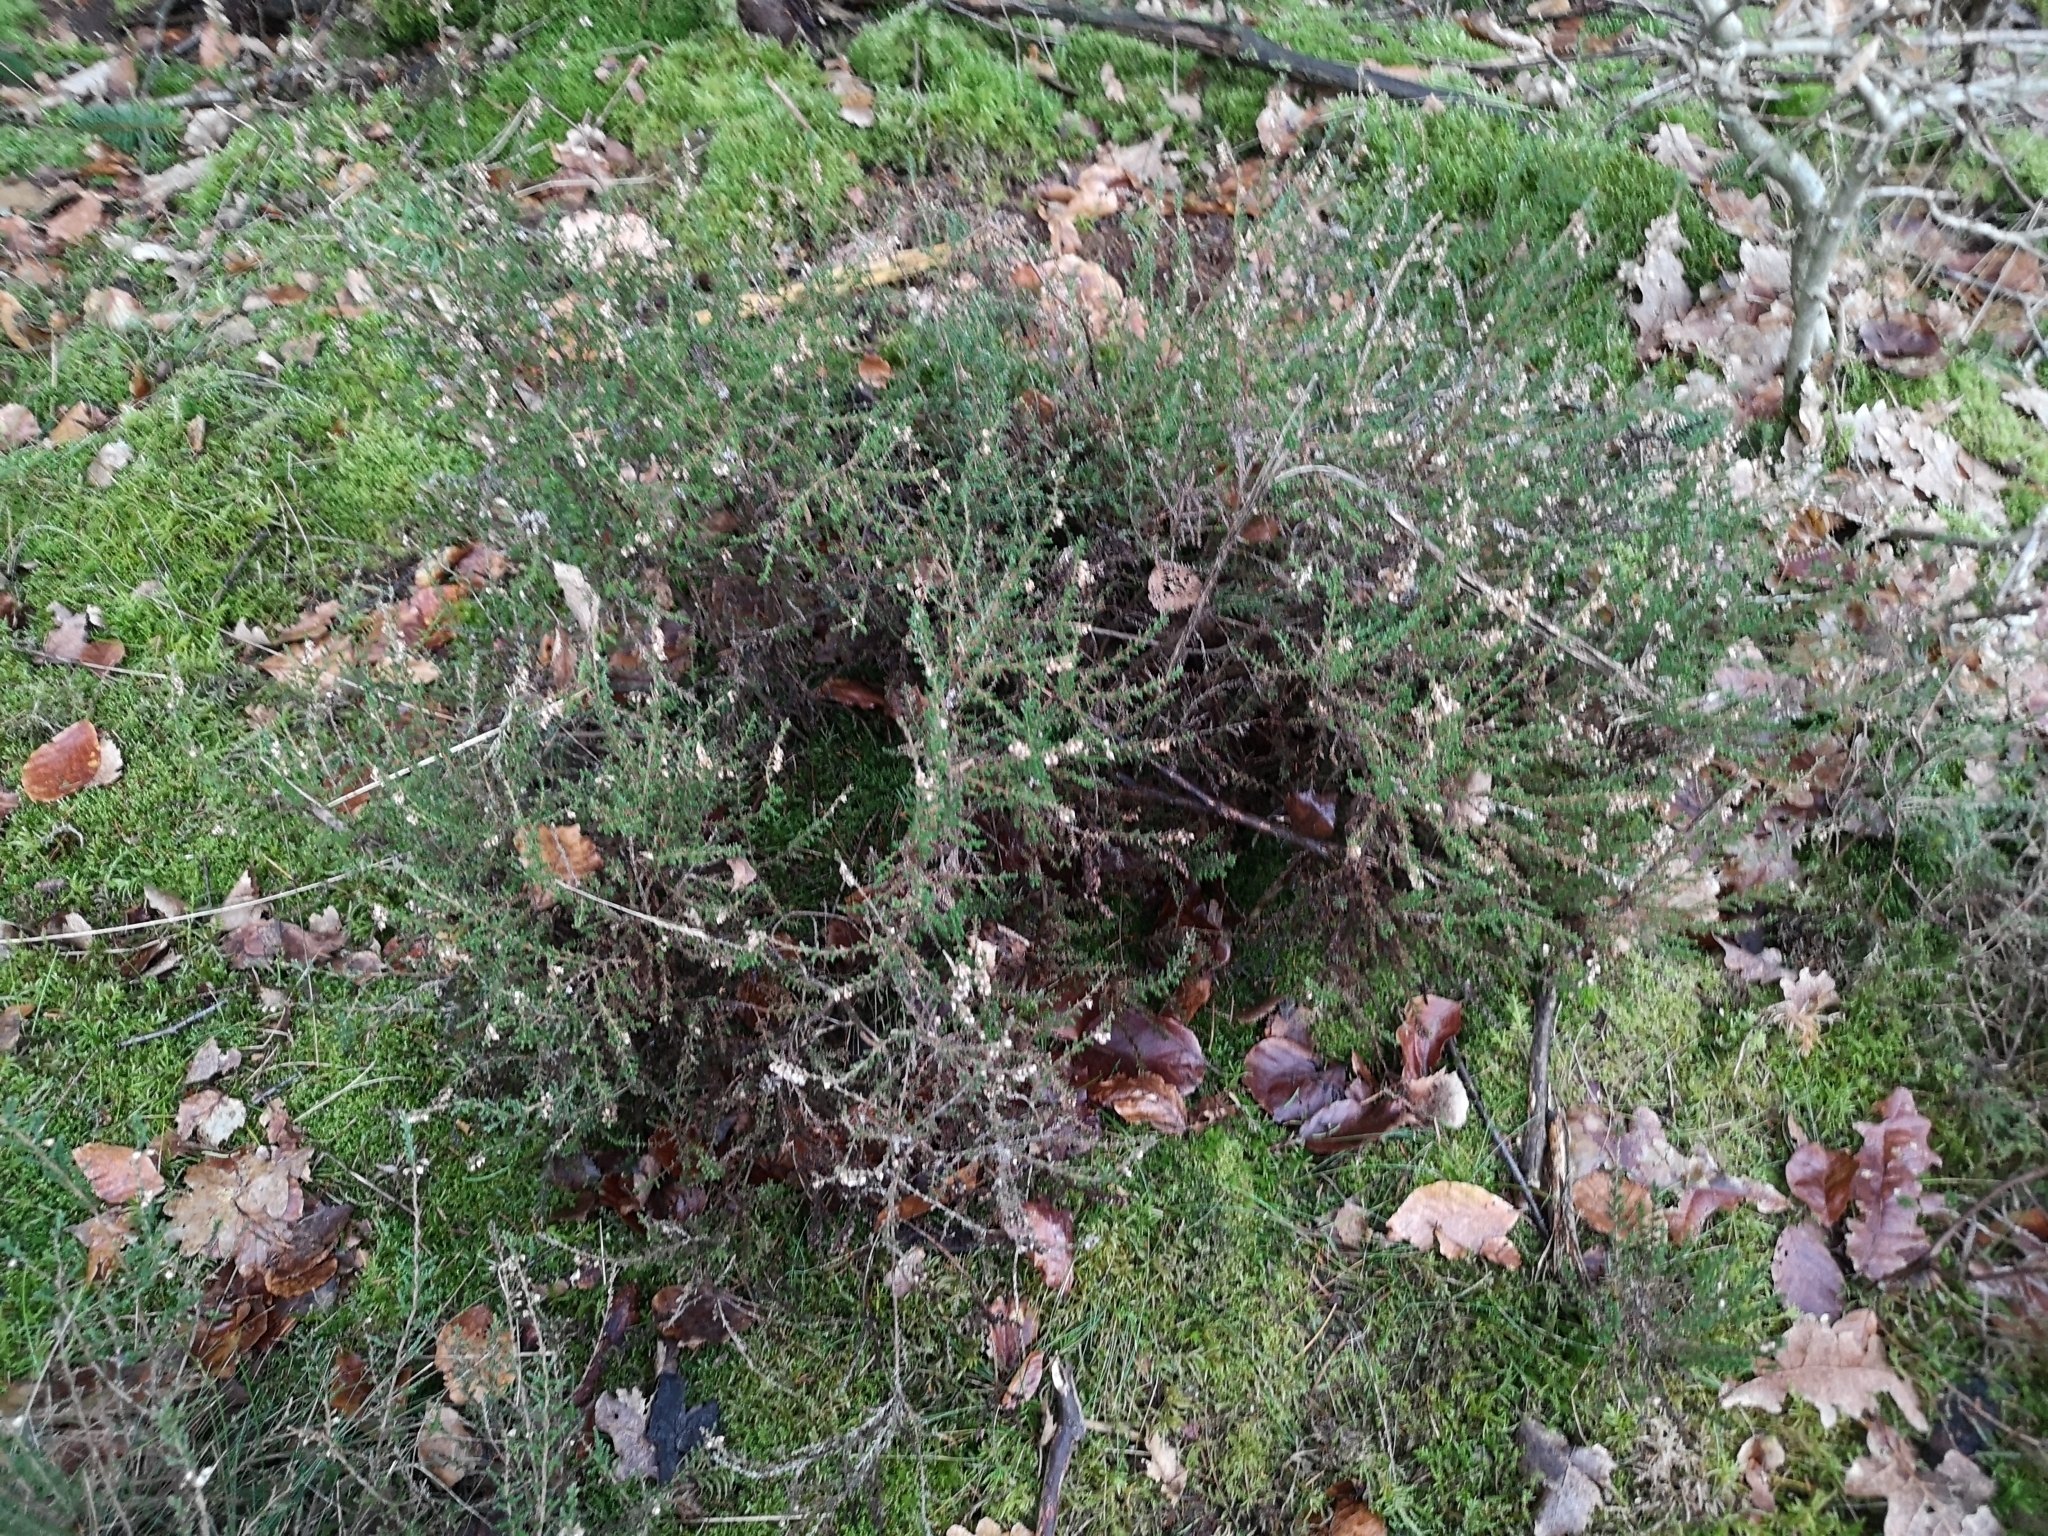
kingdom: Plantae
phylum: Tracheophyta
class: Magnoliopsida
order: Ericales
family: Ericaceae
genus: Calluna
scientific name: Calluna vulgaris
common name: Heather
